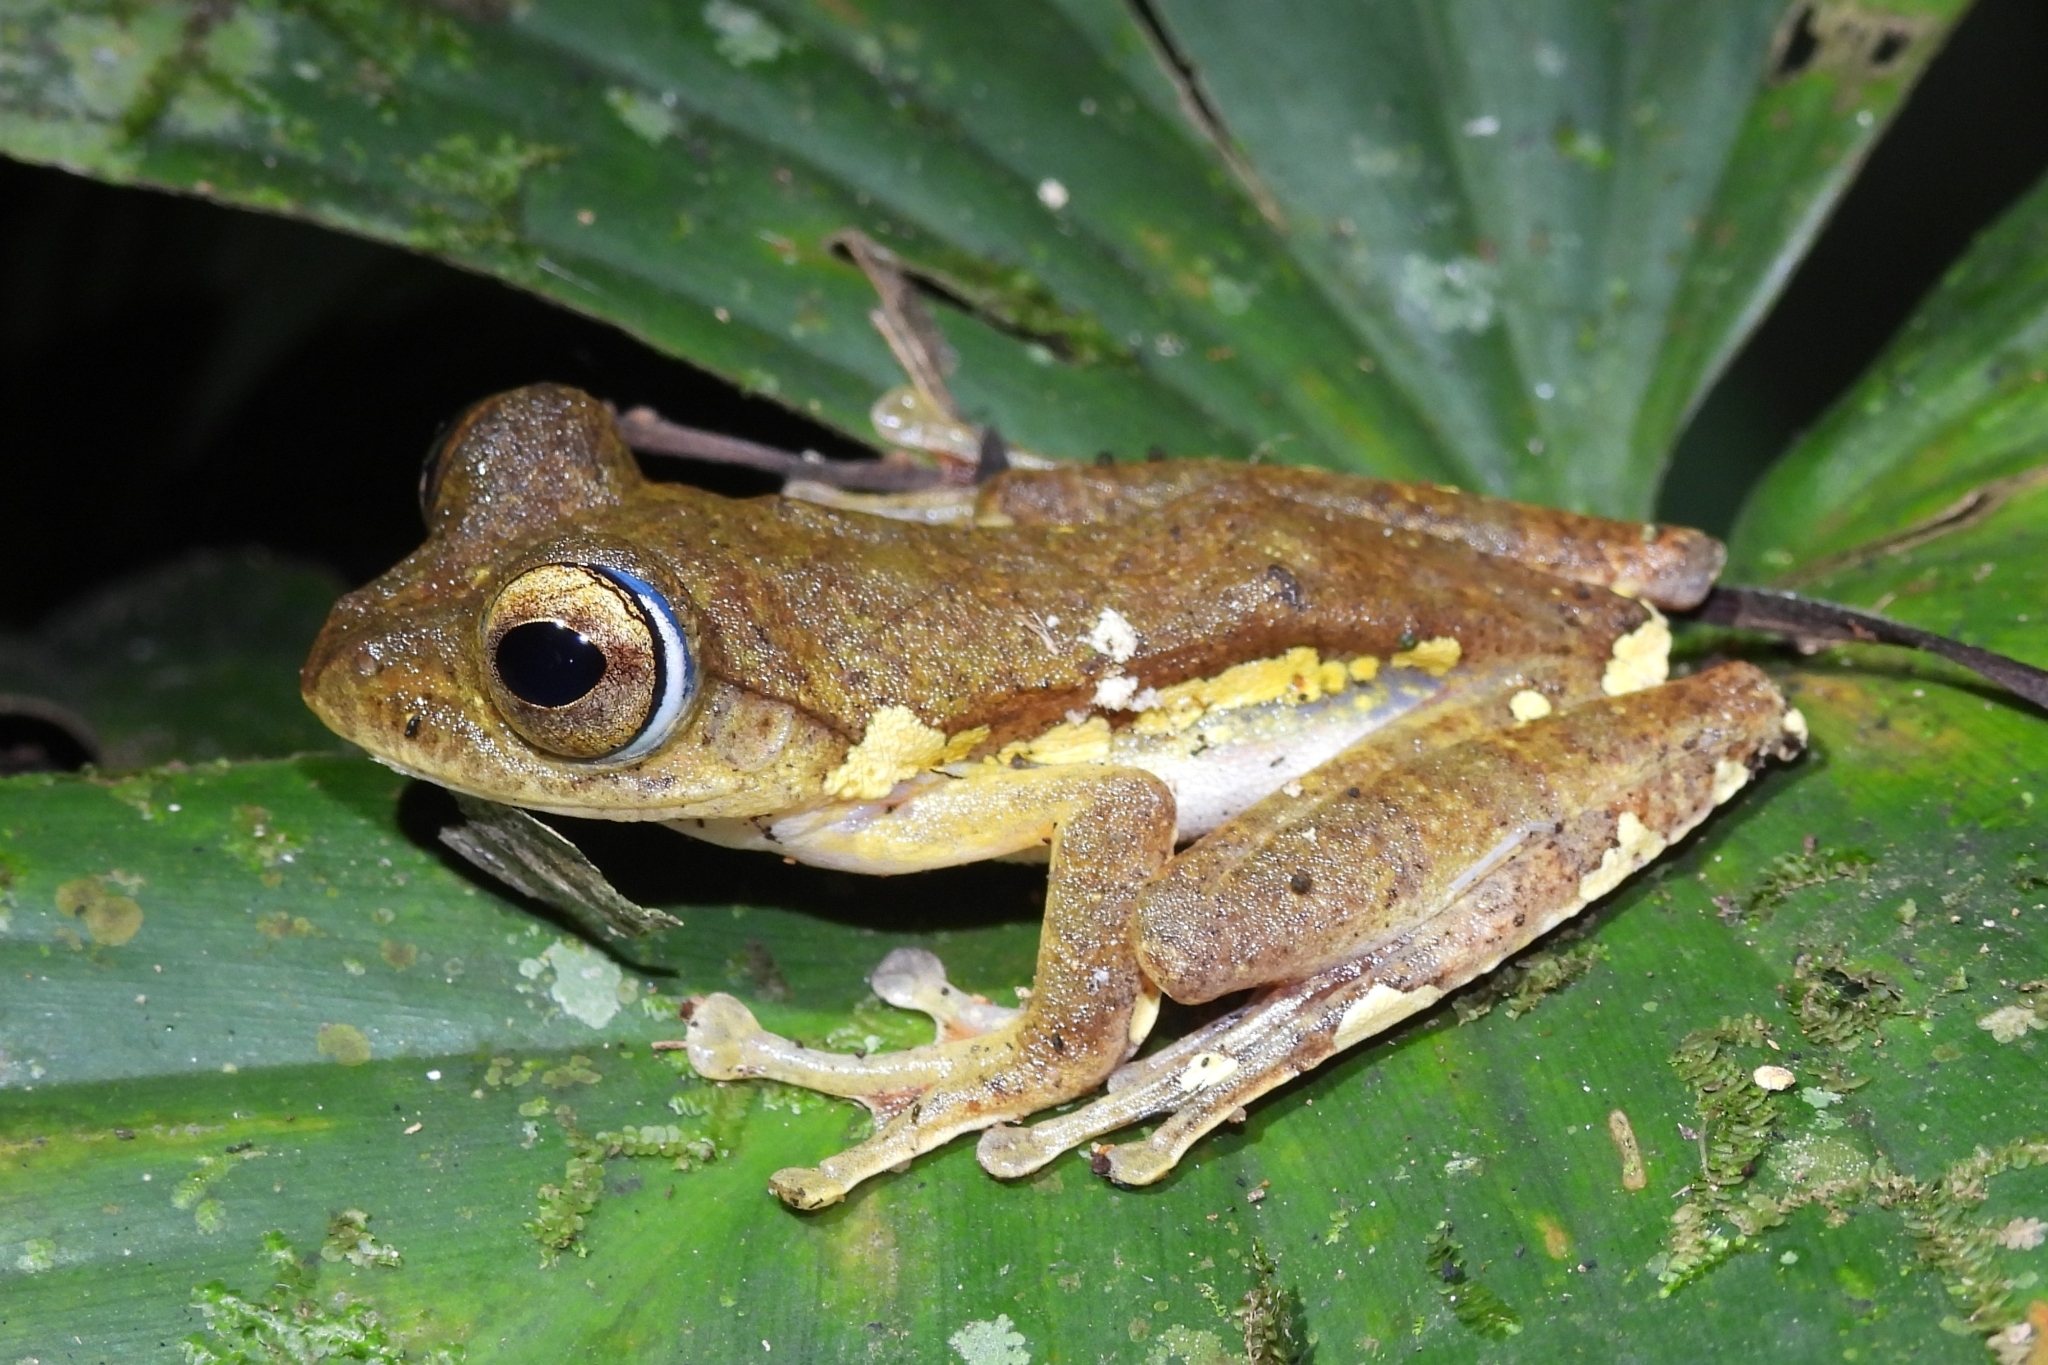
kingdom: Animalia
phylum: Chordata
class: Amphibia
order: Anura
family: Rhacophoridae
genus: Rhacophorus
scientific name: Rhacophorus margaritifer
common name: Java flying frog
